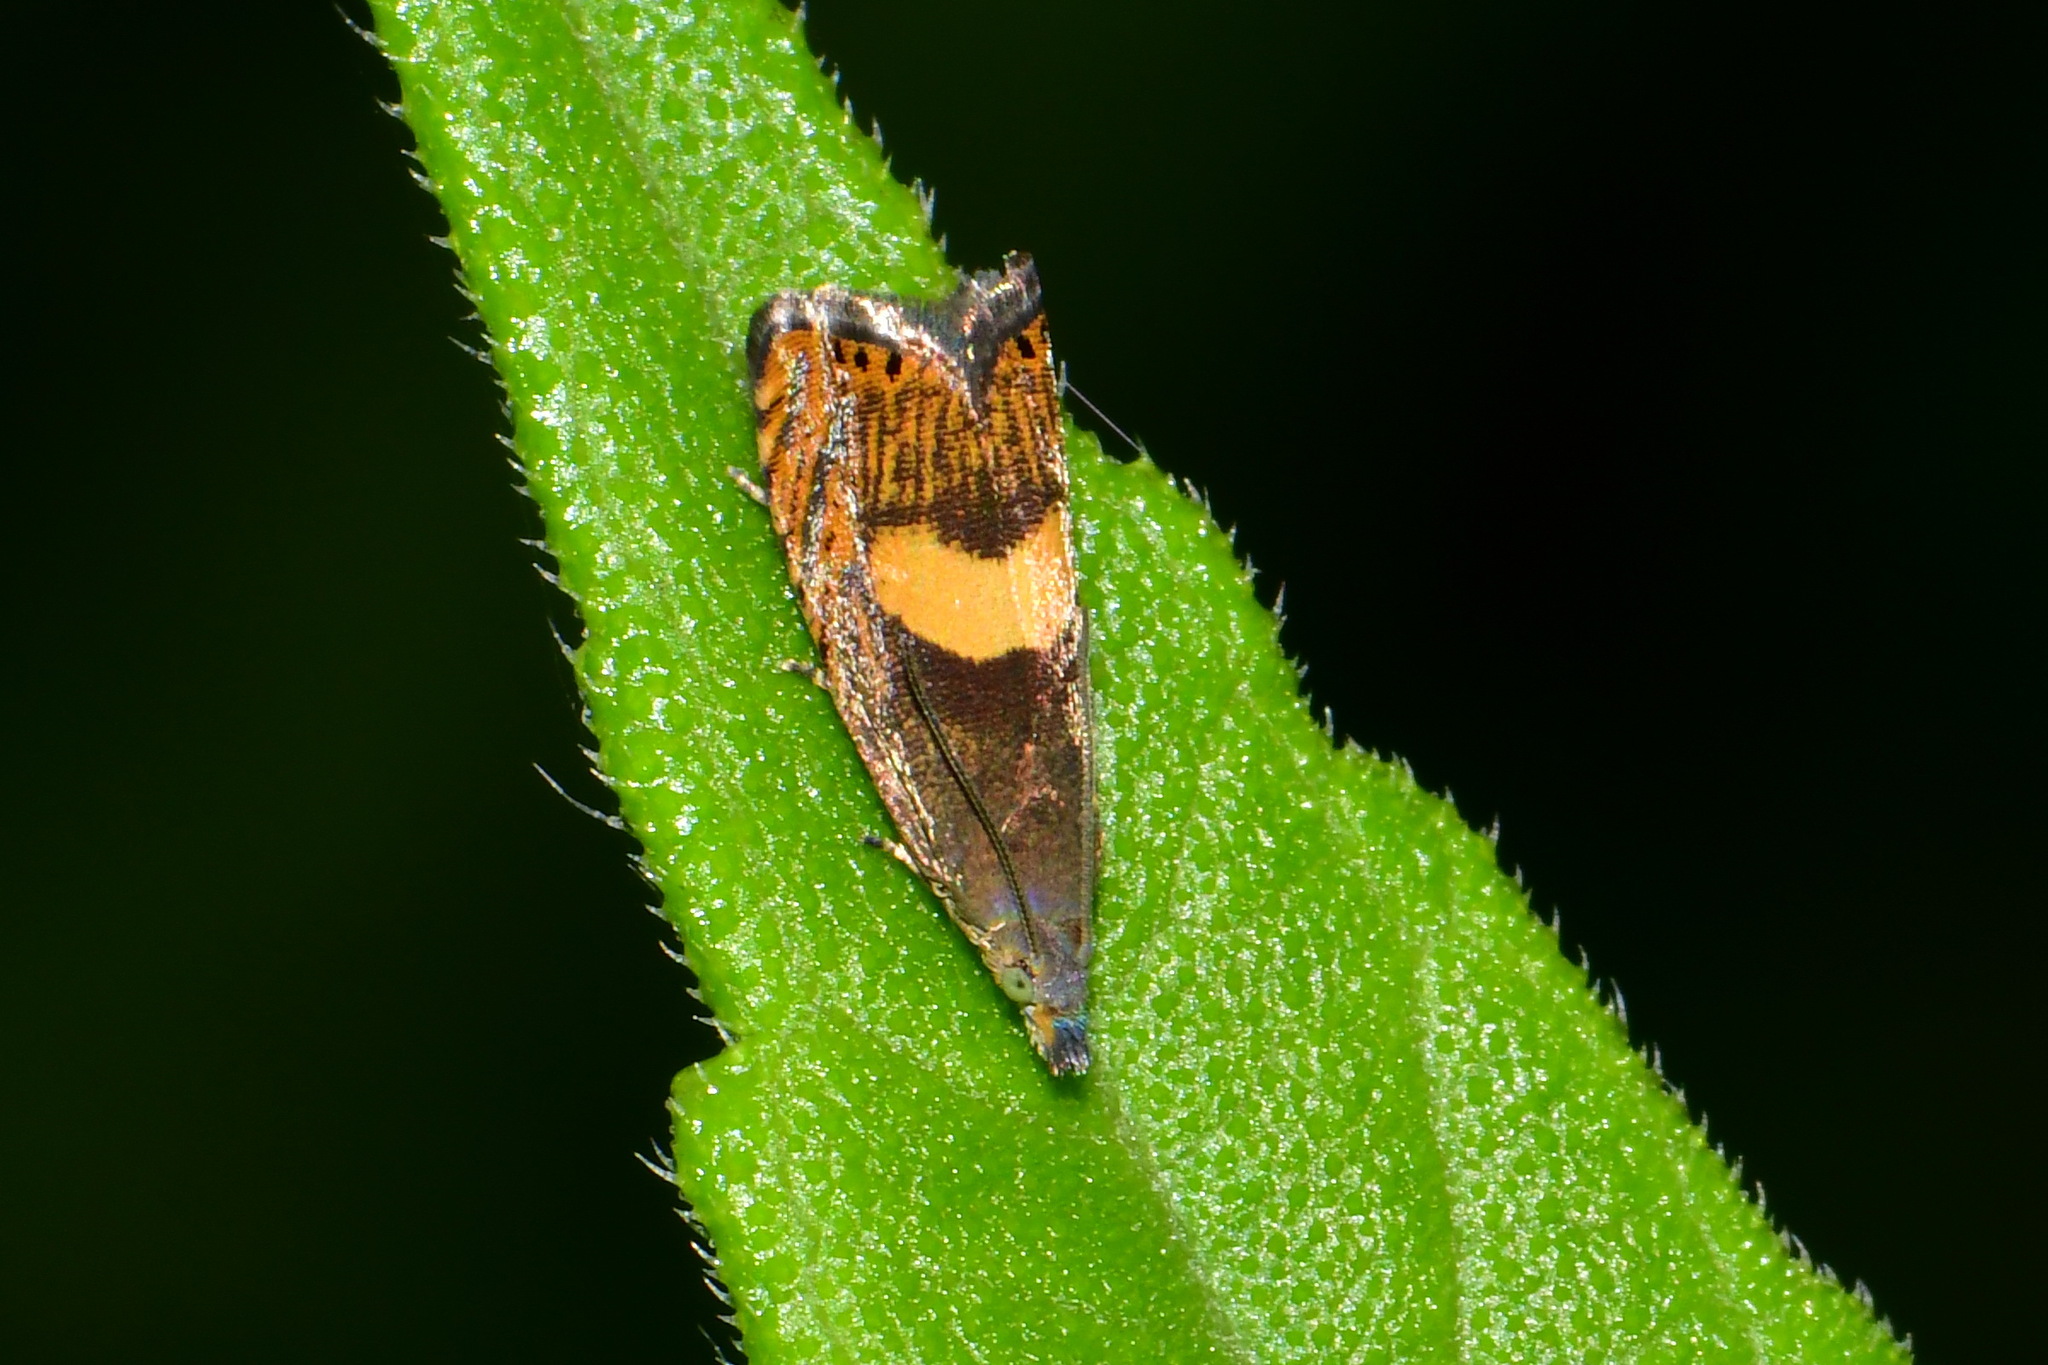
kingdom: Animalia
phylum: Arthropoda
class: Insecta
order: Lepidoptera
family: Tortricidae
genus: Dichrorampha
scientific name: Dichrorampha petiverella
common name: Common drill
